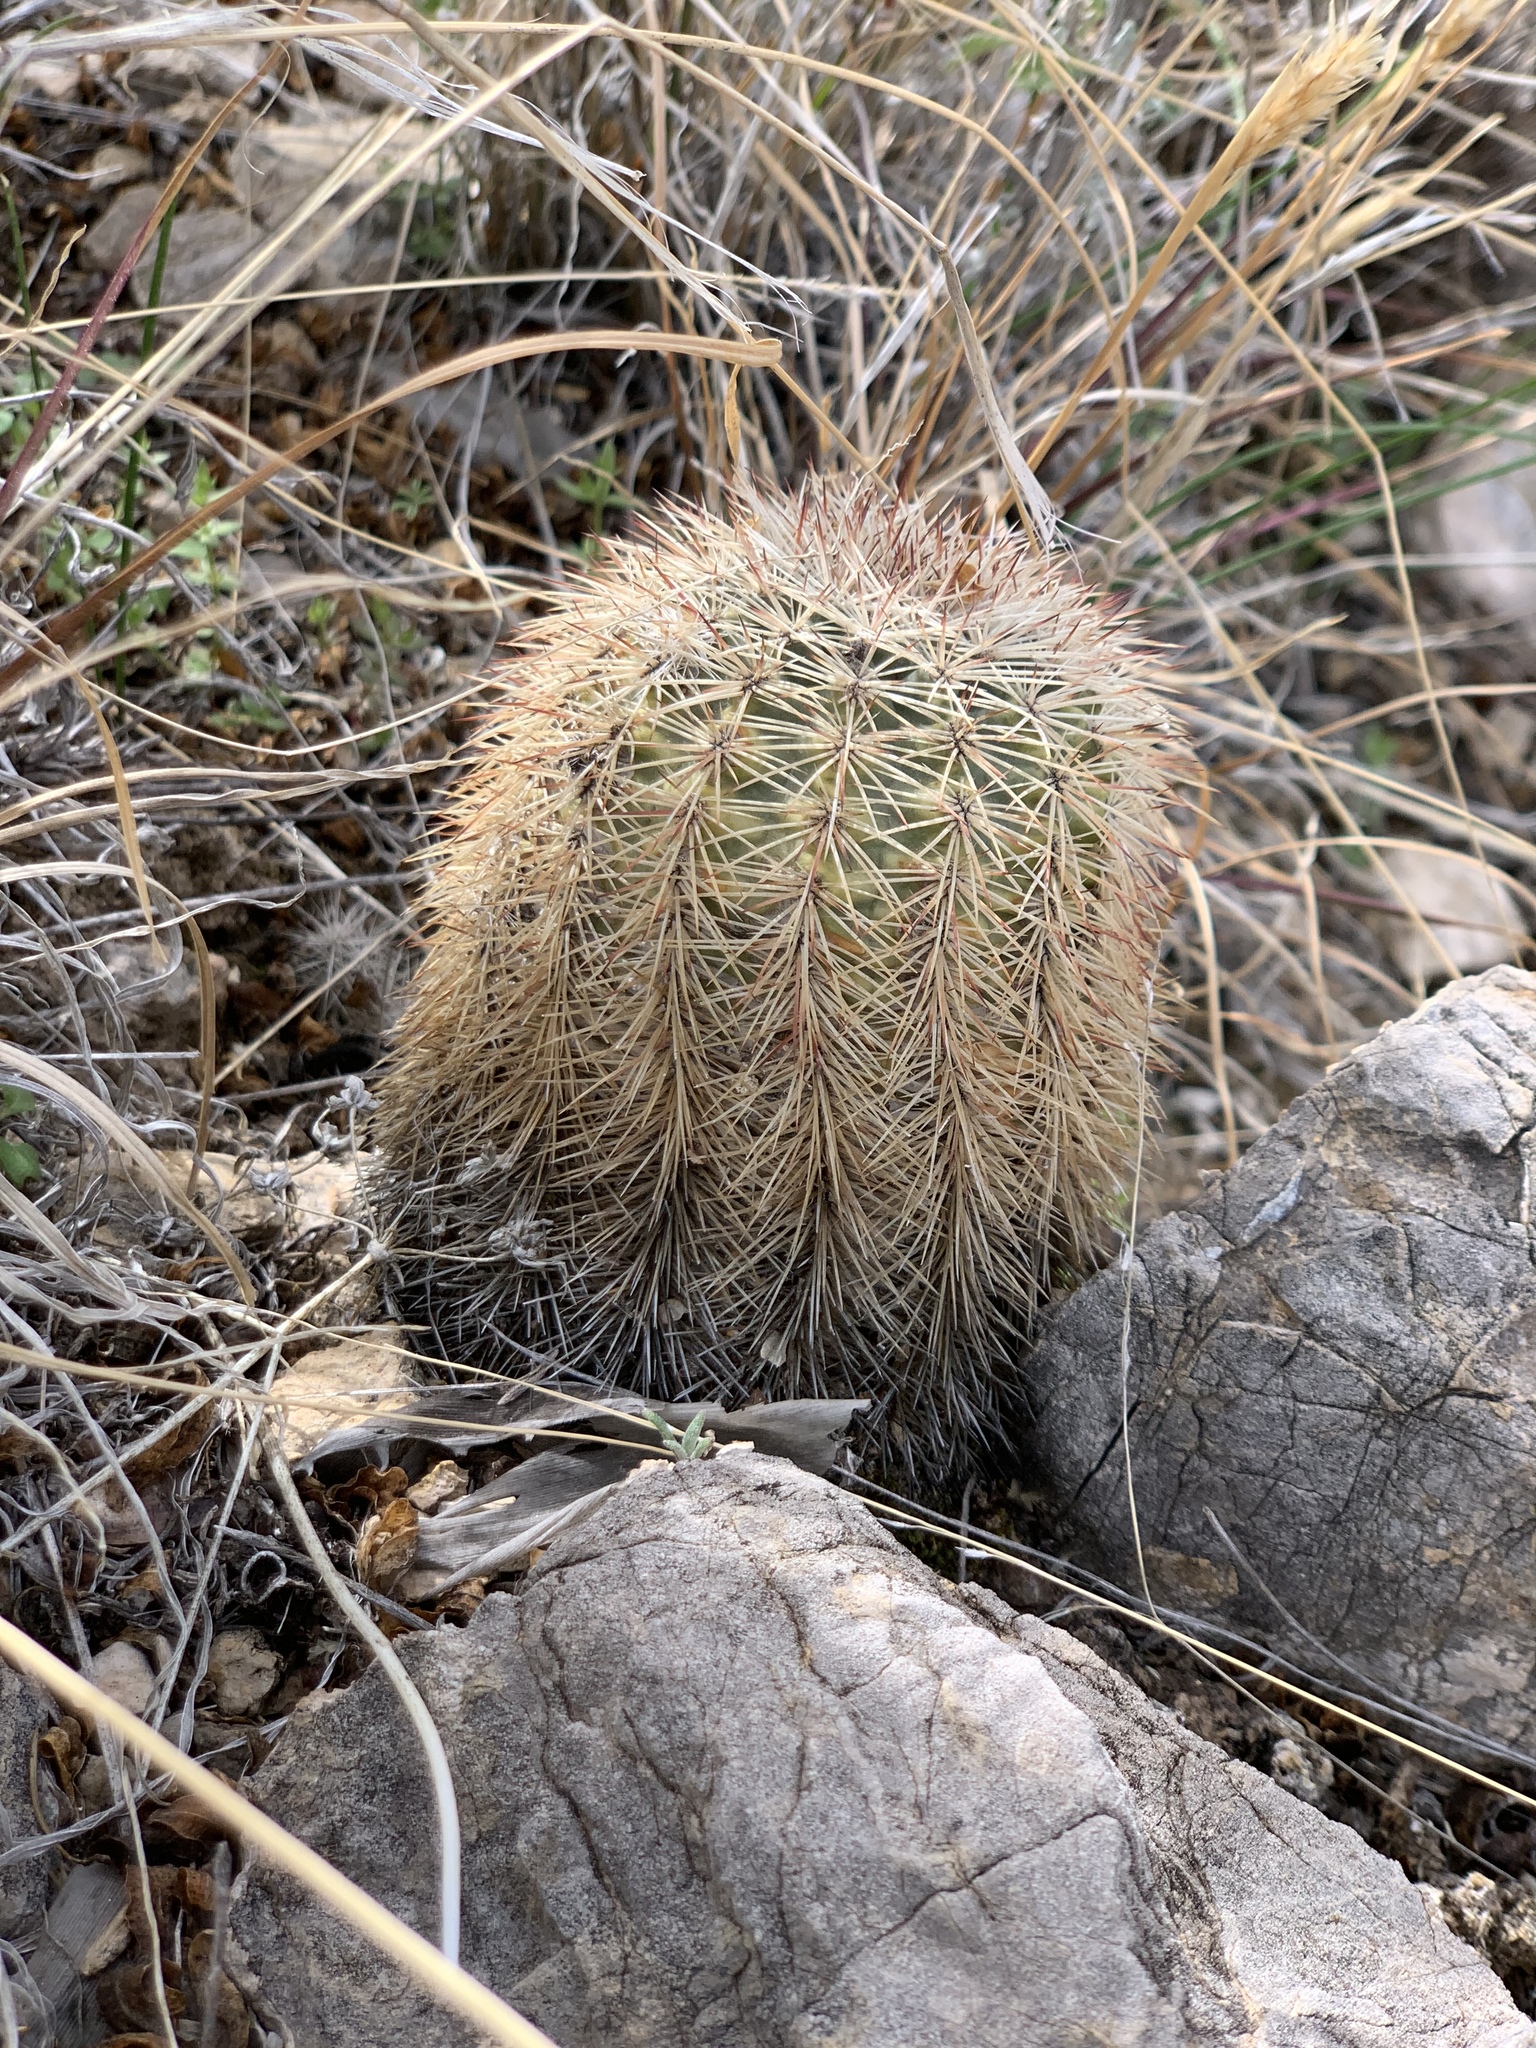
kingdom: Plantae
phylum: Tracheophyta
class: Magnoliopsida
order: Caryophyllales
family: Cactaceae
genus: Echinocereus
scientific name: Echinocereus dasyacanthus
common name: Spiny hedgehog cactus
